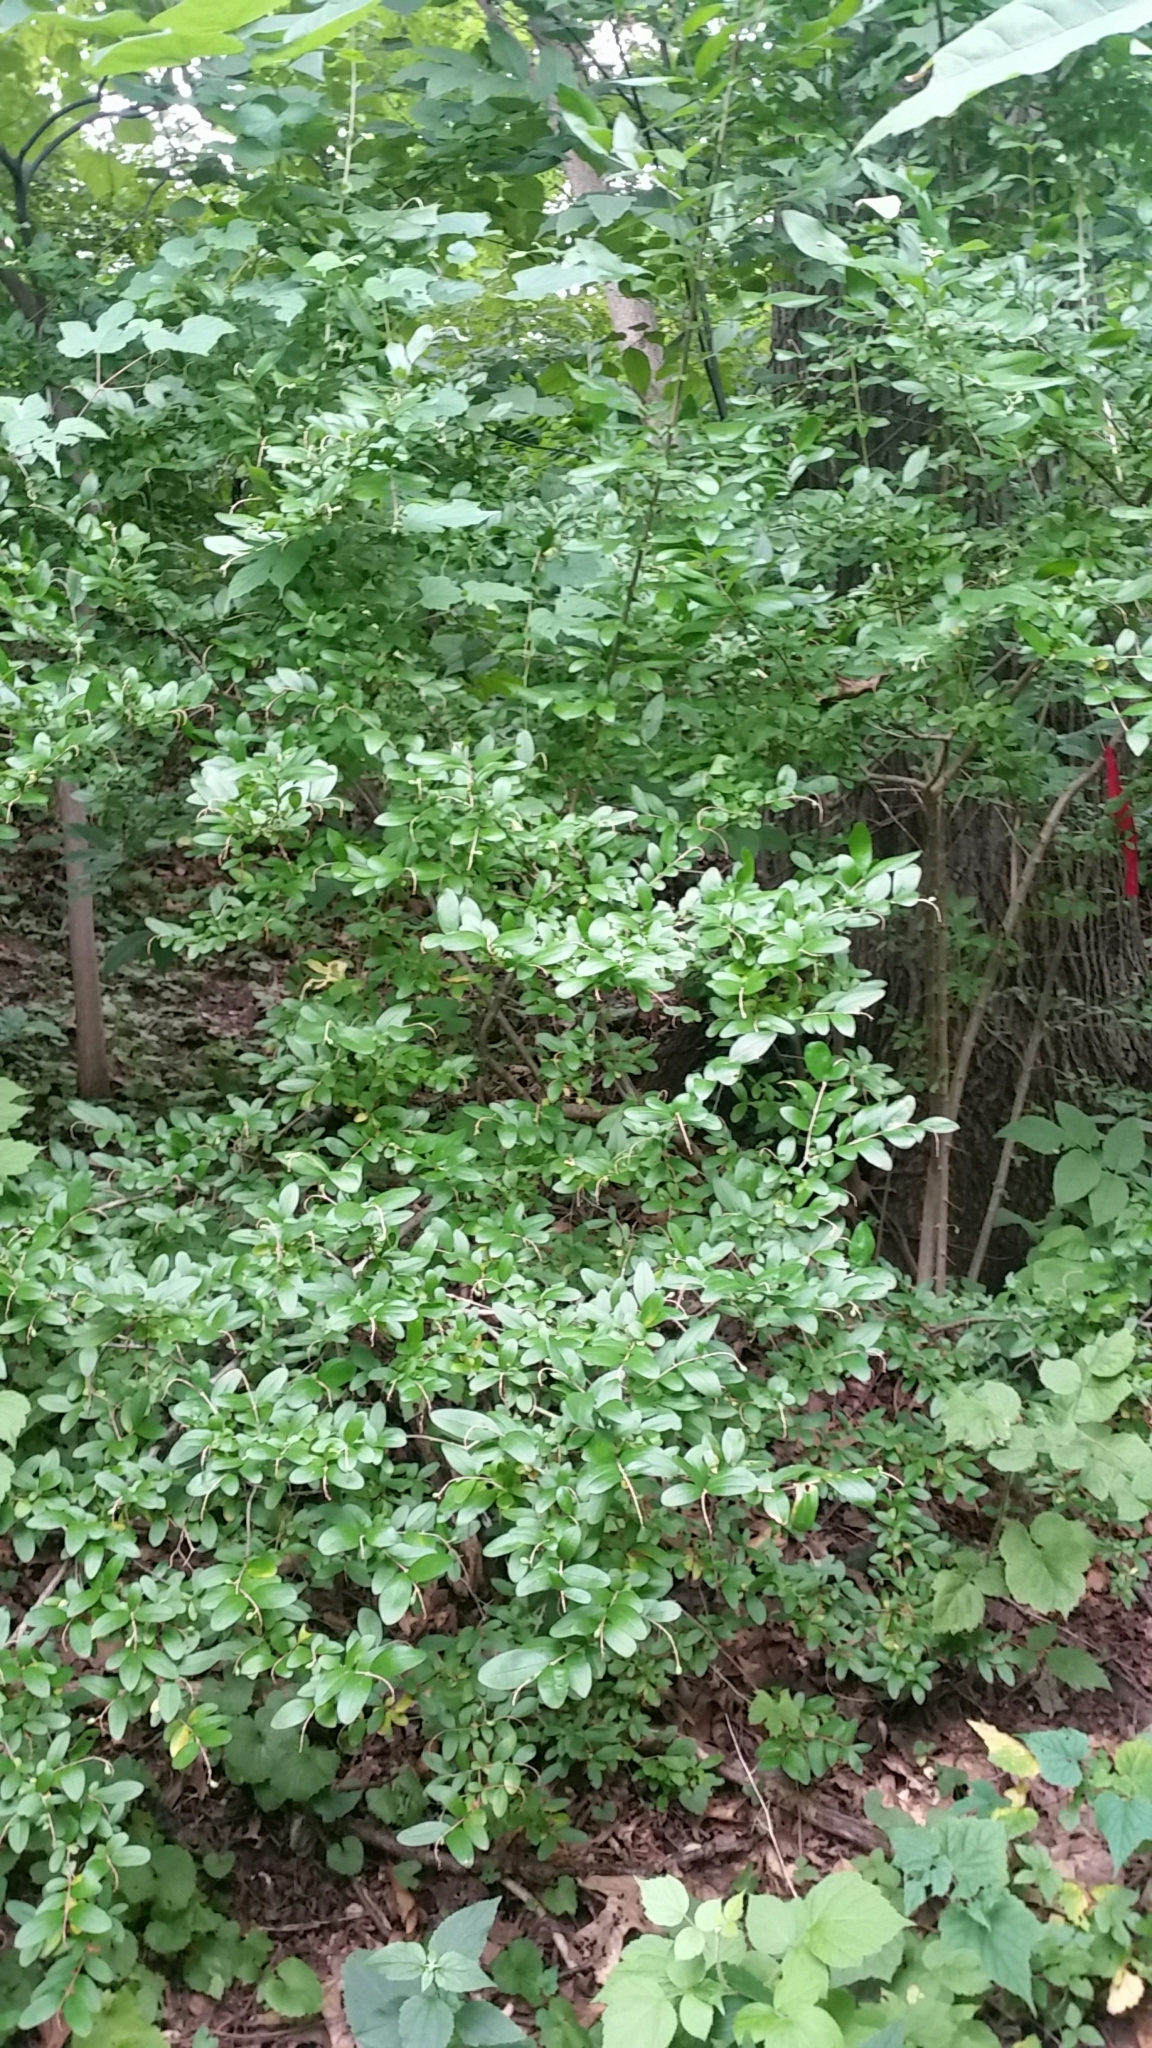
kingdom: Plantae
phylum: Tracheophyta
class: Magnoliopsida
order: Lamiales
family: Oleaceae
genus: Ligustrum
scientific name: Ligustrum obtusifolium
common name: Border privet
